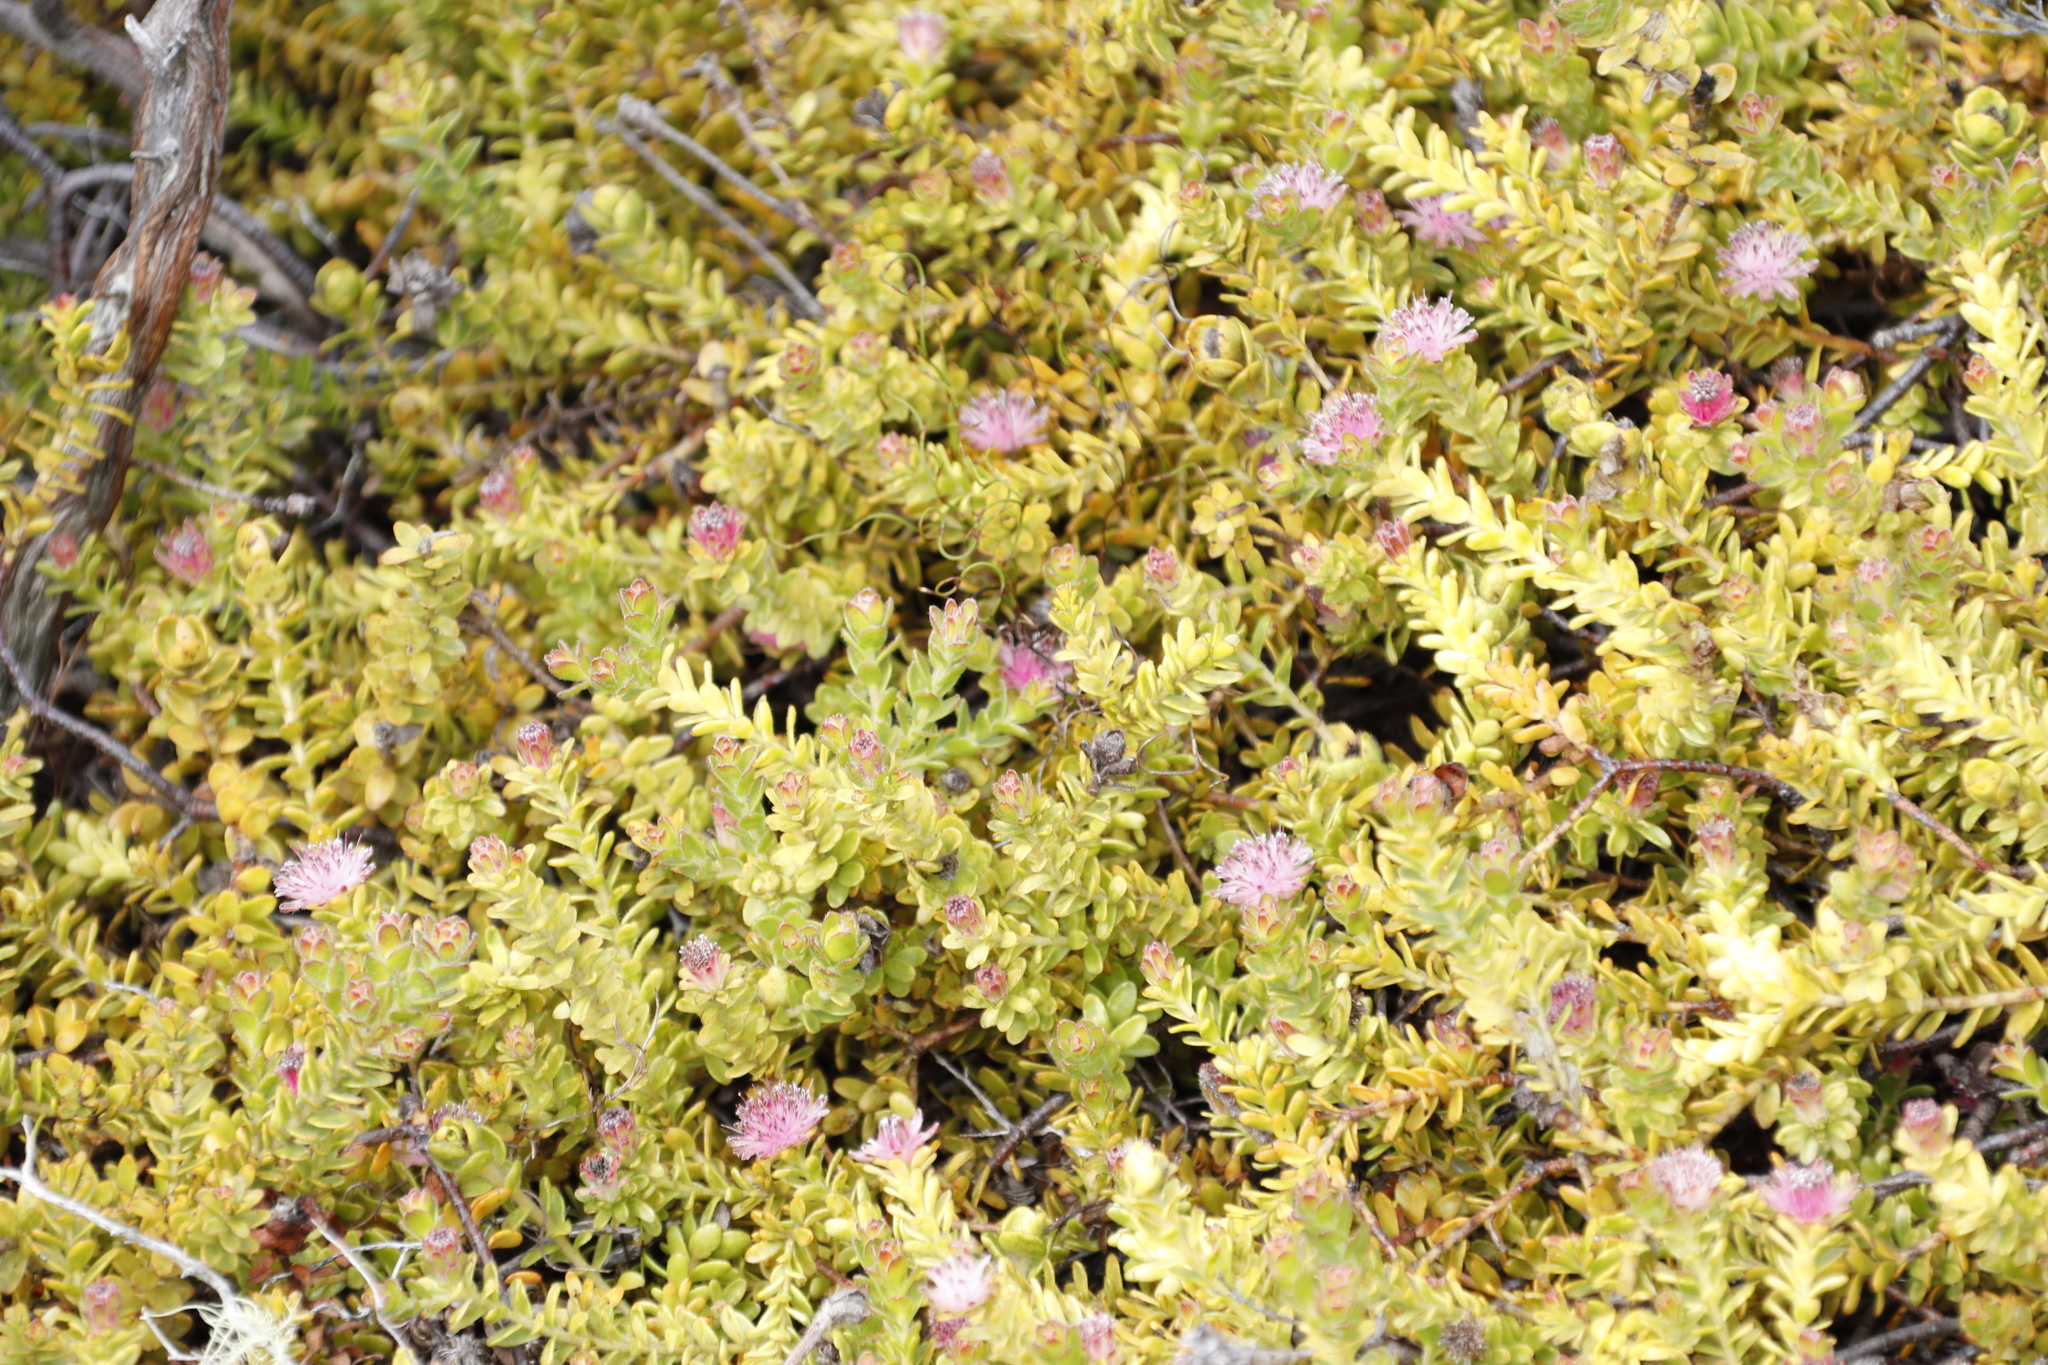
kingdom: Plantae
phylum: Tracheophyta
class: Magnoliopsida
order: Proteales
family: Proteaceae
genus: Diastella
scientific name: Diastella divaricata
